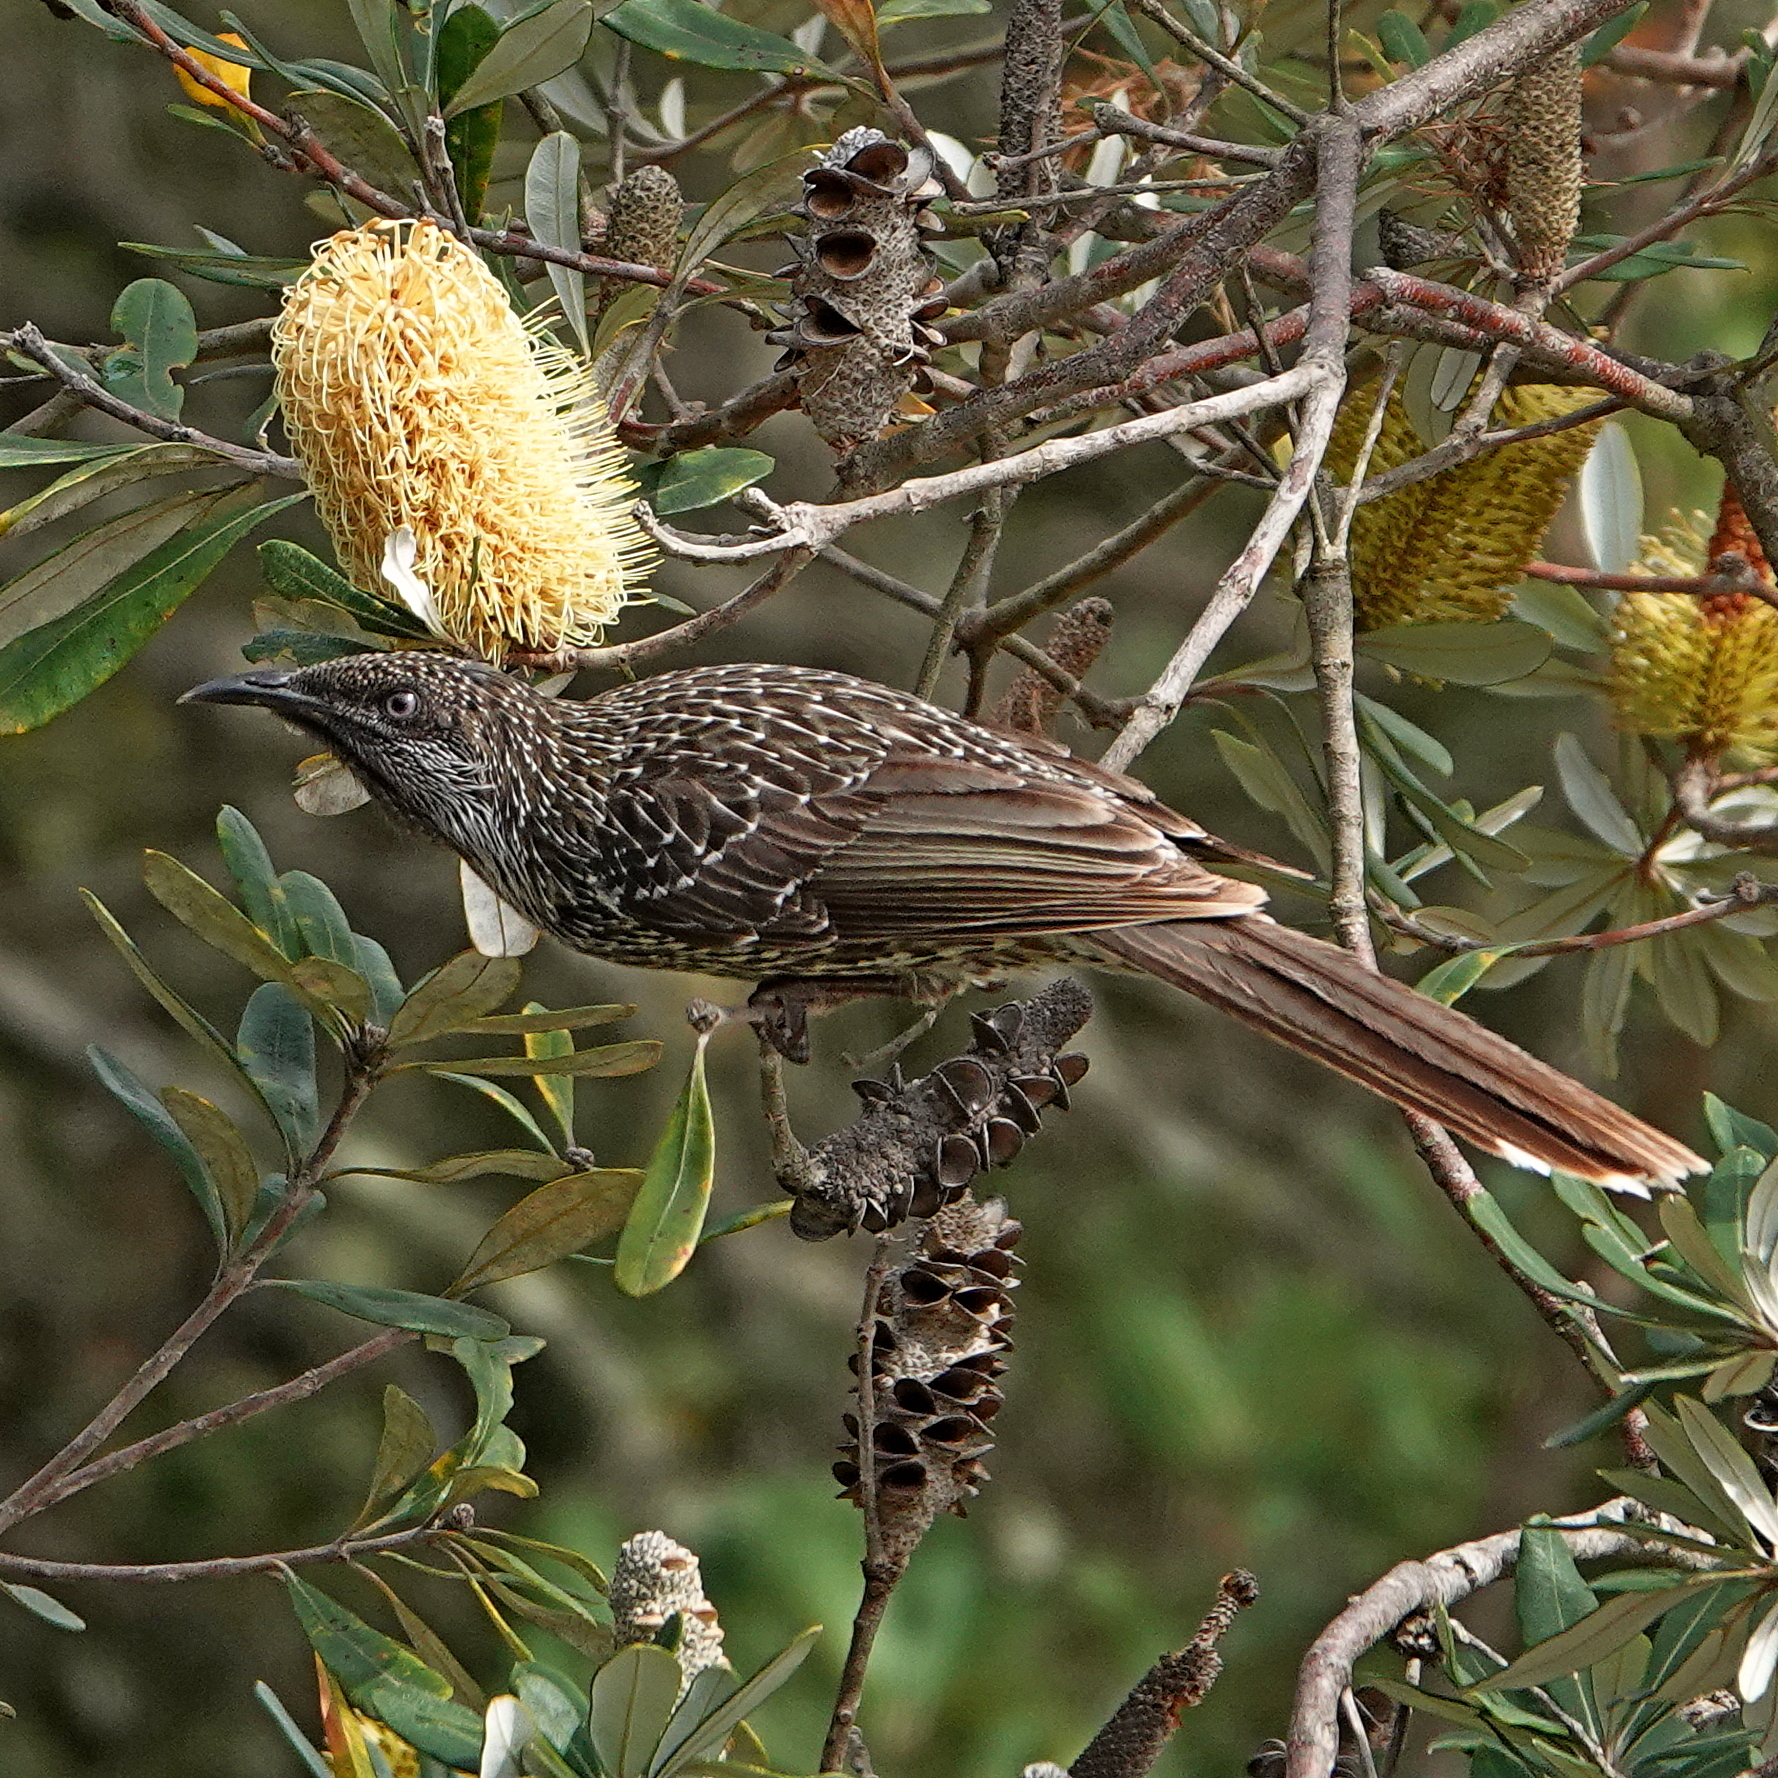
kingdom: Animalia
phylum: Chordata
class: Aves
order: Passeriformes
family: Meliphagidae
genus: Anthochaera
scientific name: Anthochaera chrysoptera
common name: Little wattlebird
